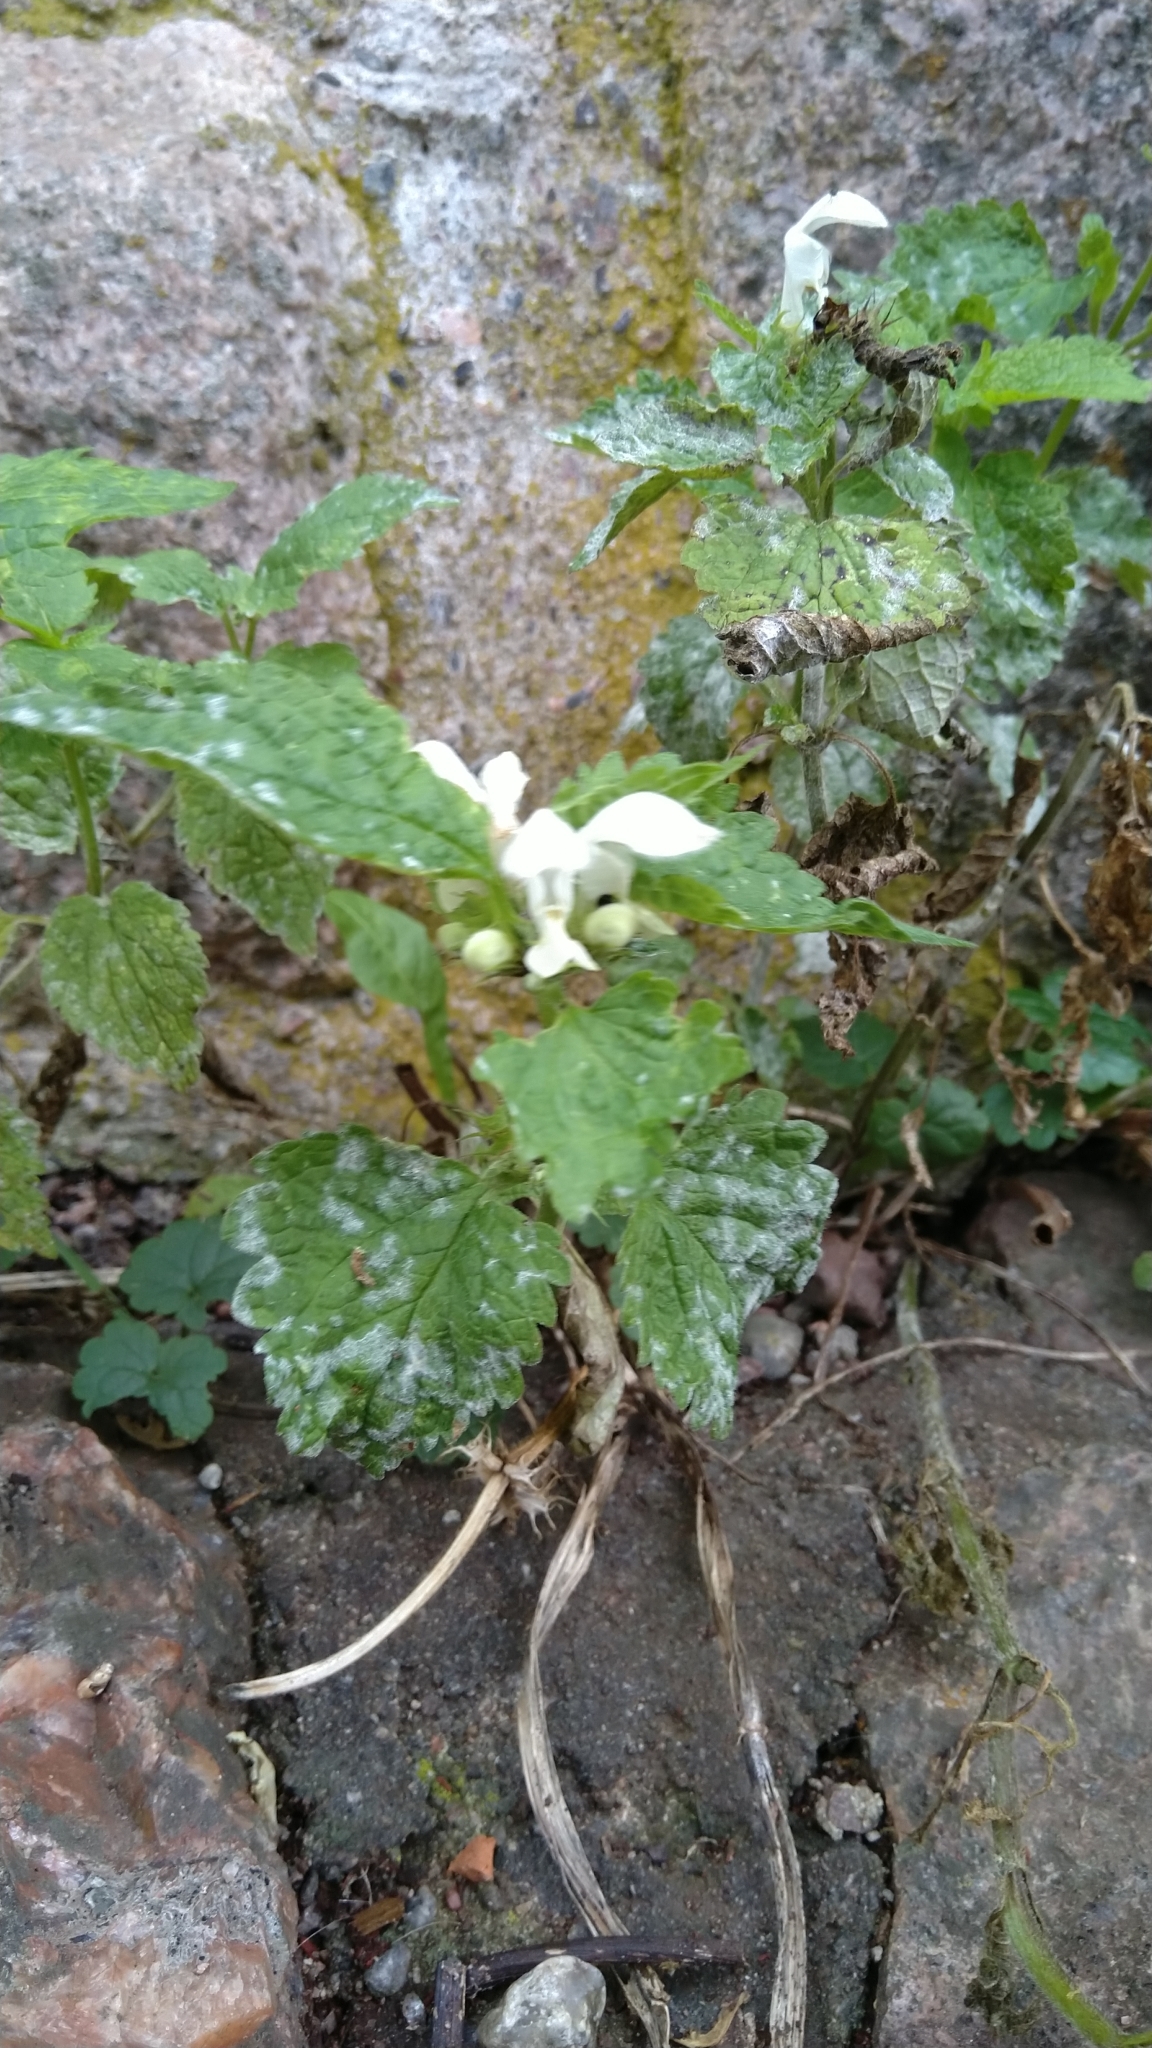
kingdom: Plantae
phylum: Tracheophyta
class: Magnoliopsida
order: Lamiales
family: Lamiaceae
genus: Lamium
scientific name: Lamium album
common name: White dead-nettle
